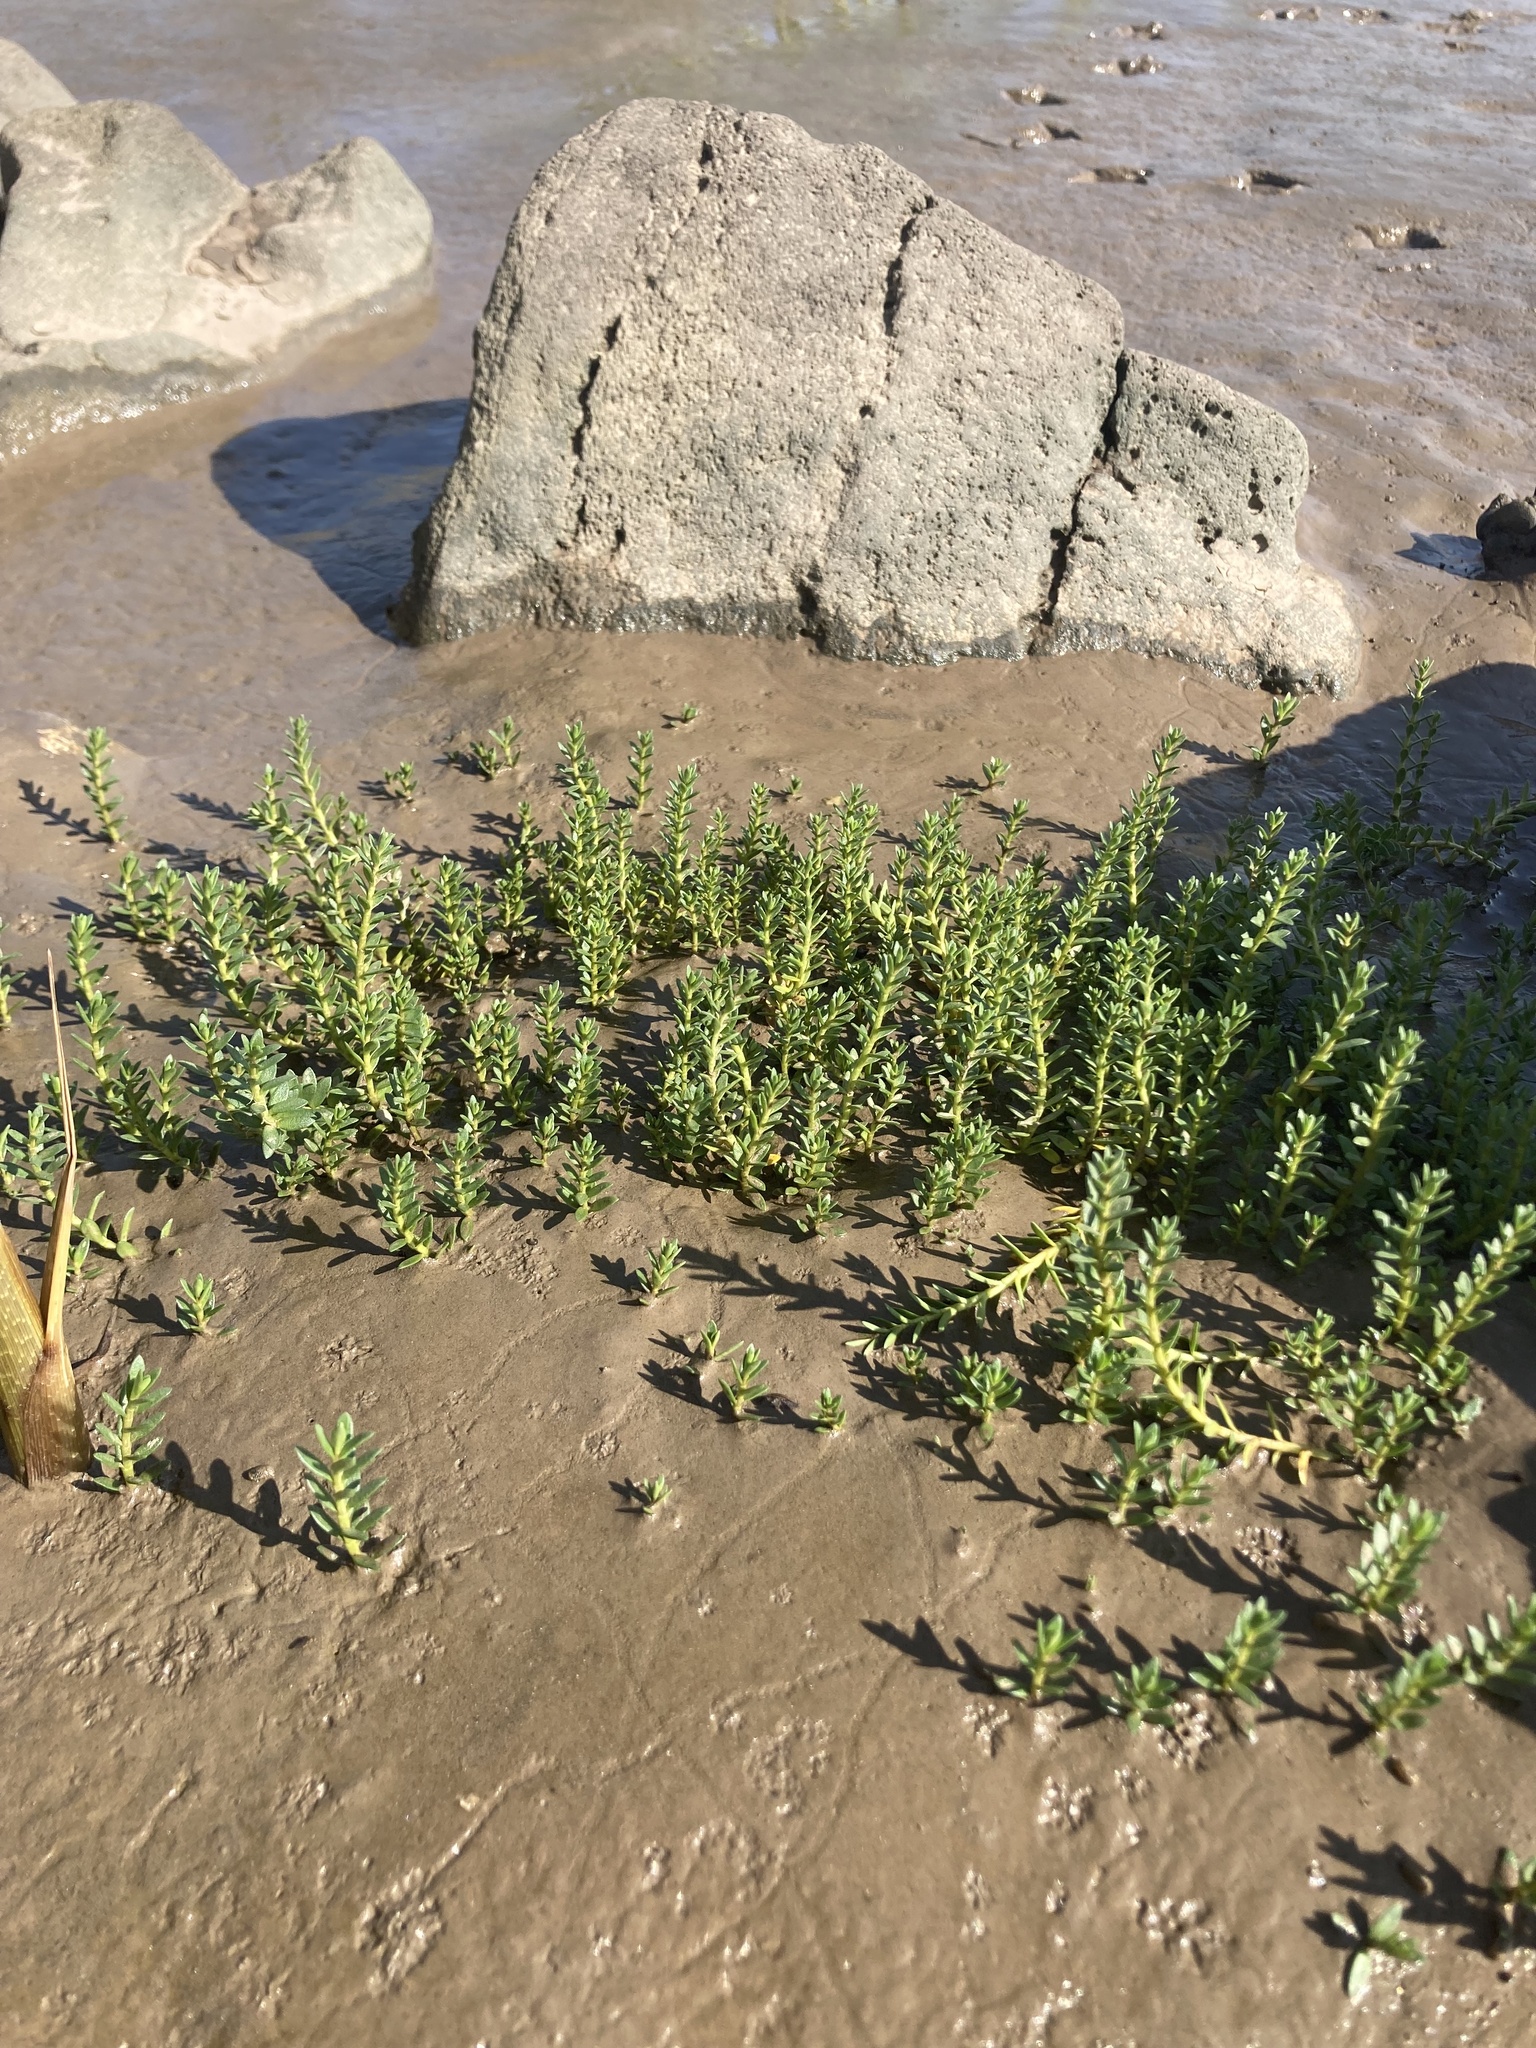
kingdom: Plantae
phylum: Tracheophyta
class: Magnoliopsida
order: Ericales
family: Primulaceae
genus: Lysimachia
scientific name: Lysimachia maritima
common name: Sea milkwort
